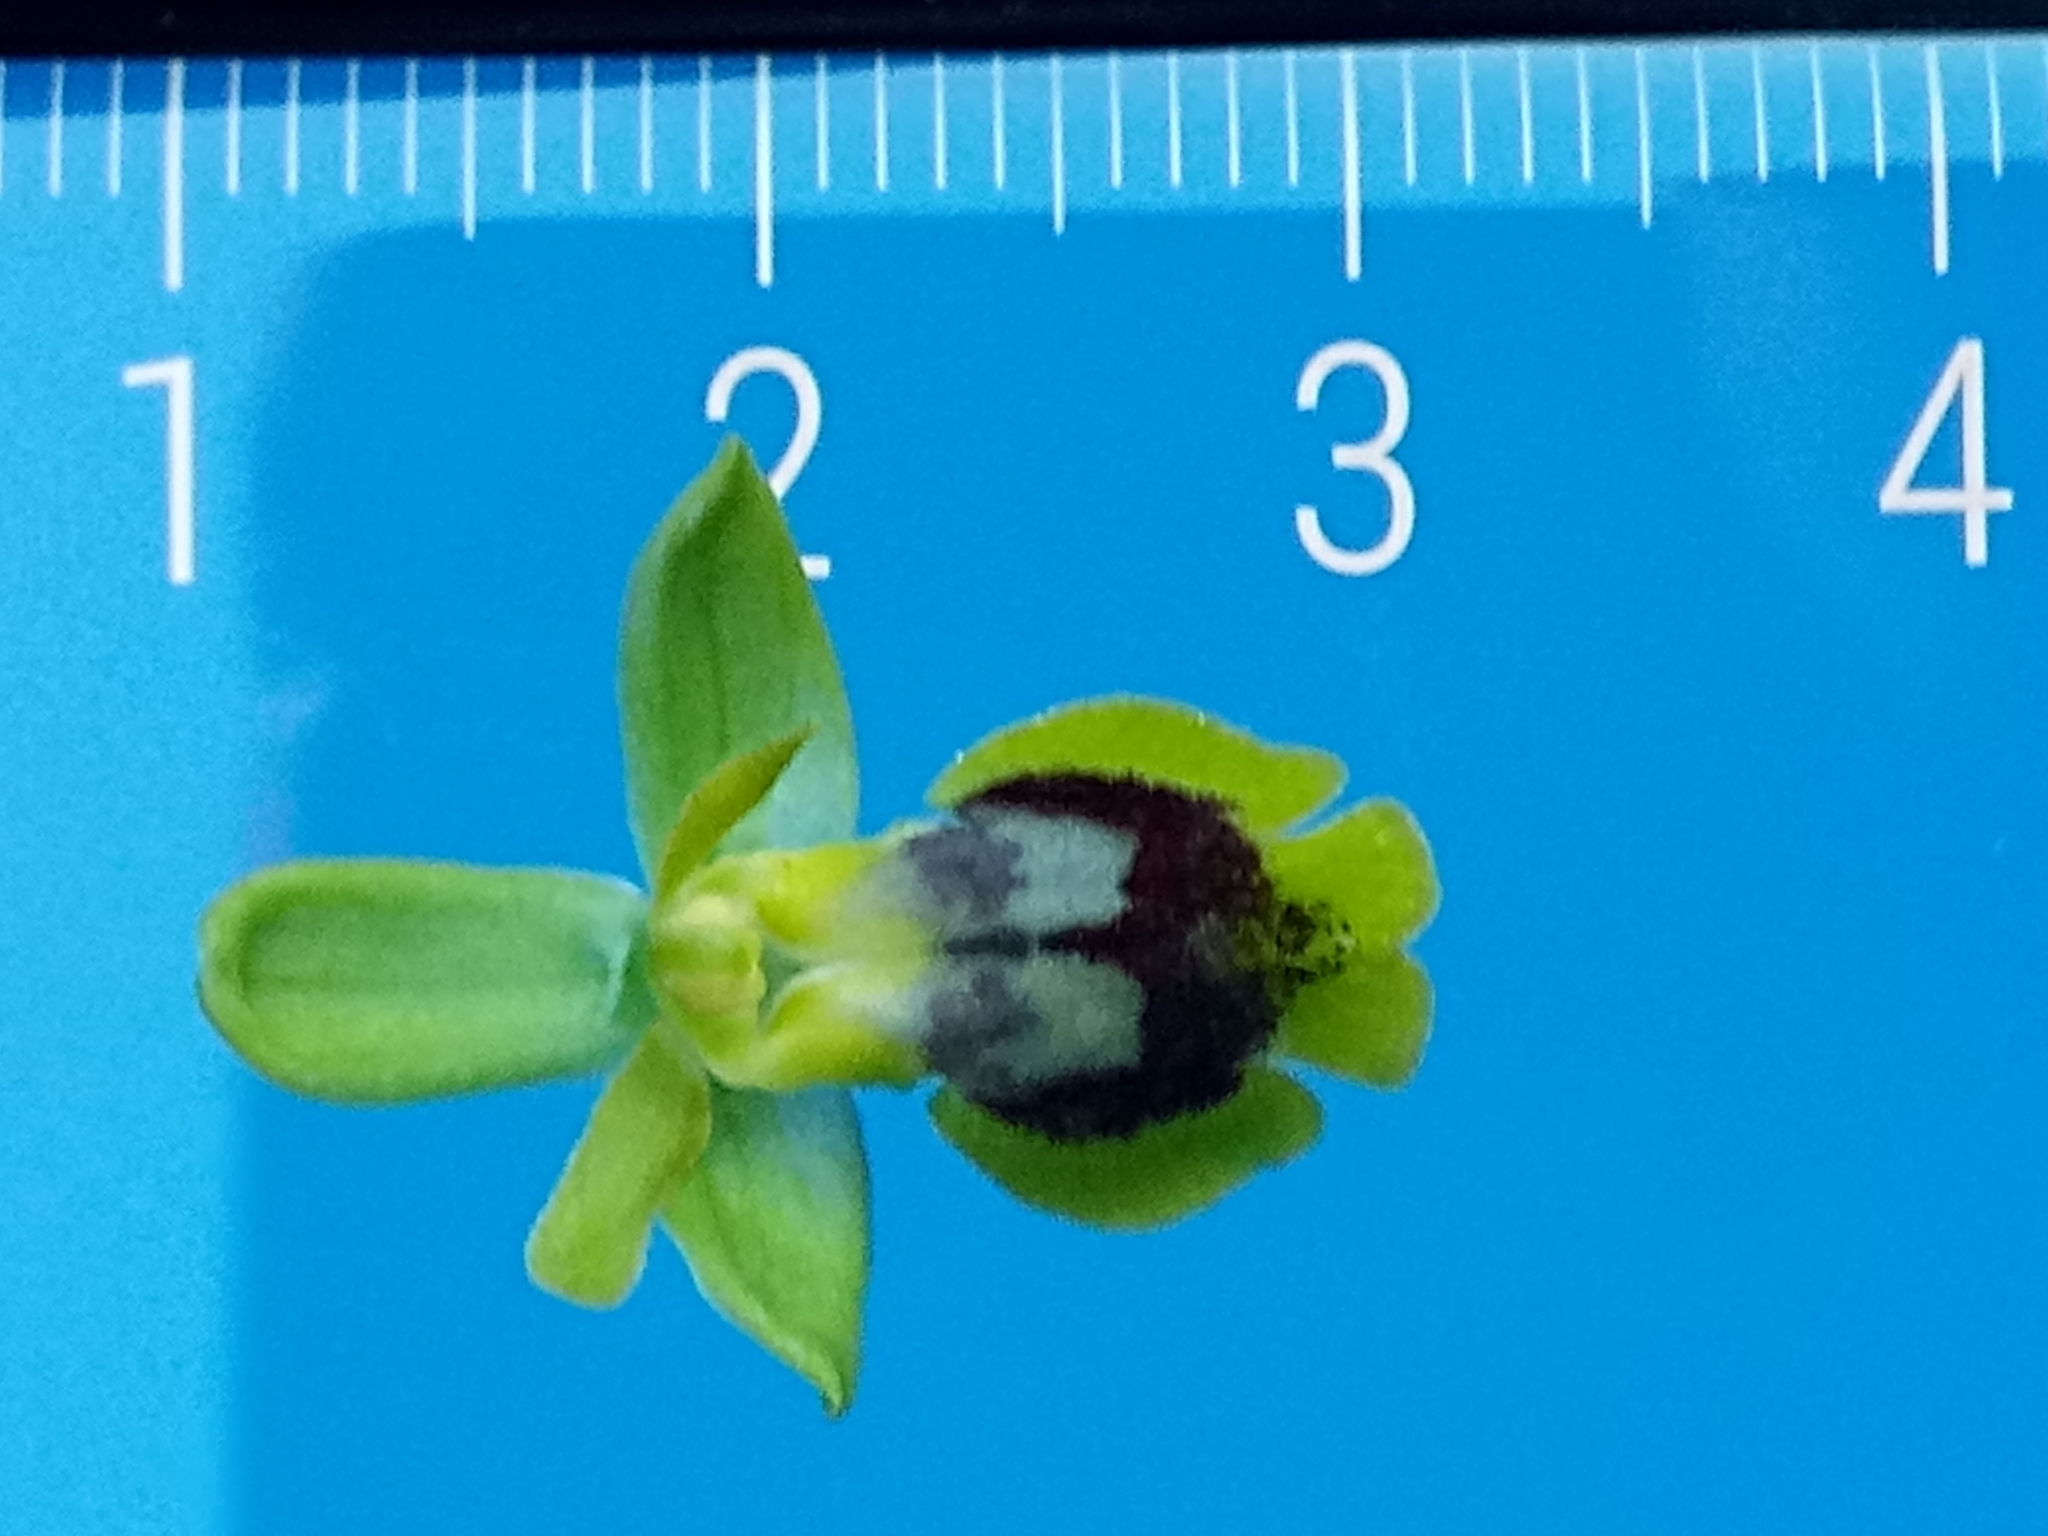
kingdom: Plantae
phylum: Tracheophyta
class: Liliopsida
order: Asparagales
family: Orchidaceae
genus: Ophrys
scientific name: Ophrys battandieri
